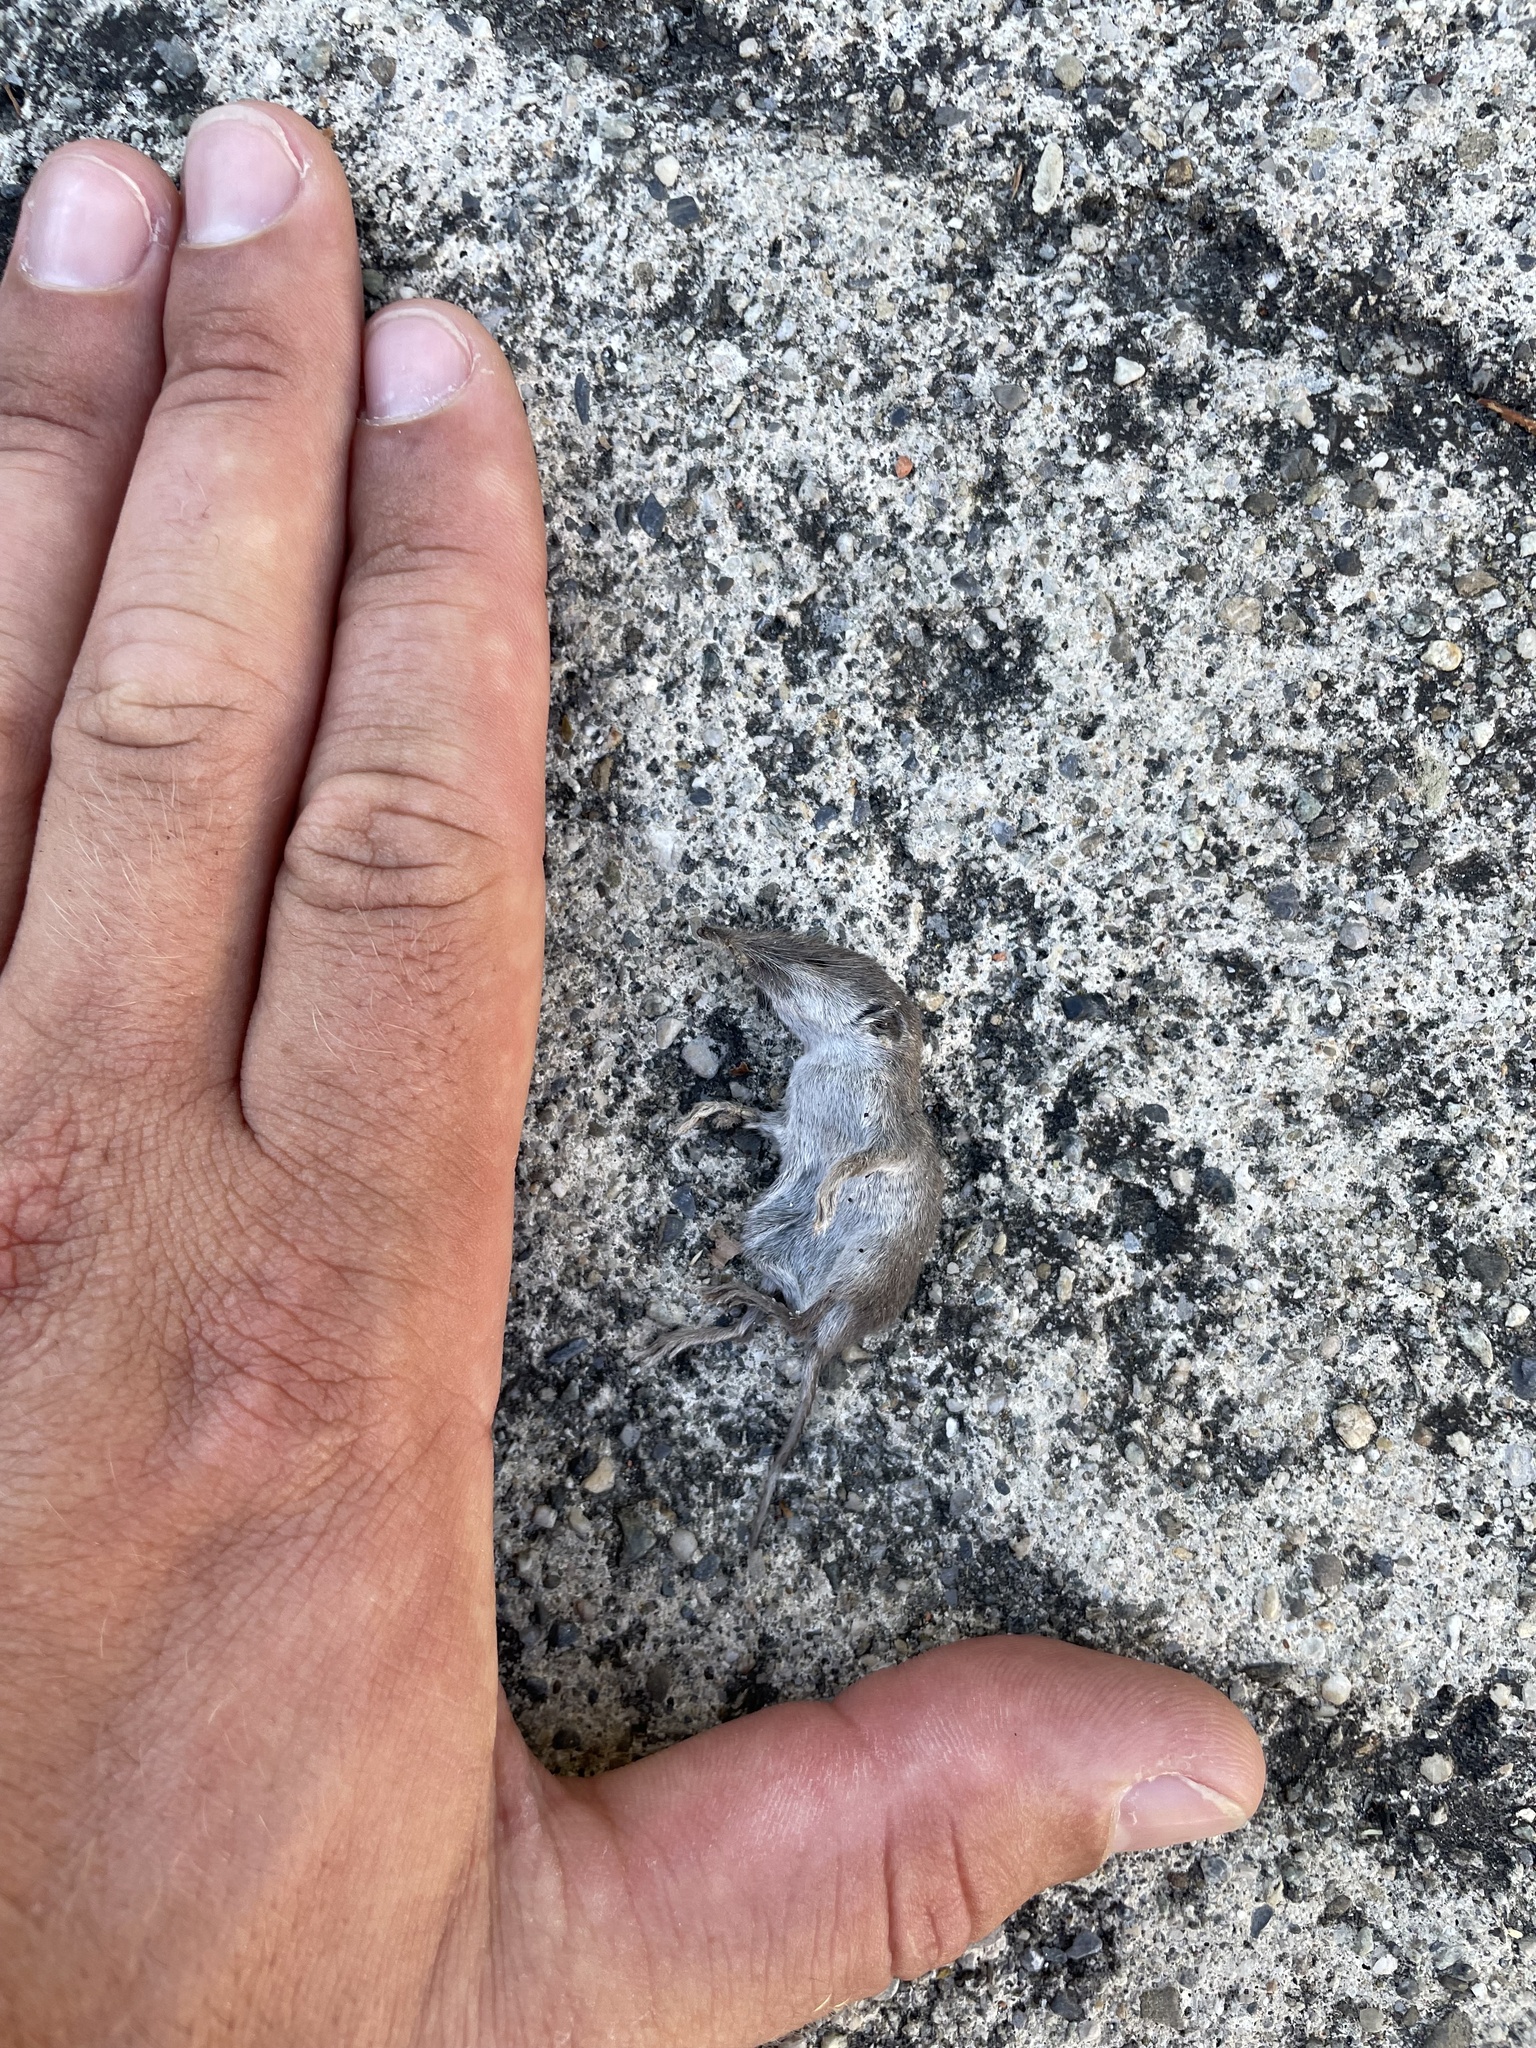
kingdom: Animalia
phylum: Chordata
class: Mammalia
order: Soricomorpha
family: Soricidae
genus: Crocidura
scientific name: Crocidura russula
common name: Greater white-toothed shrew
